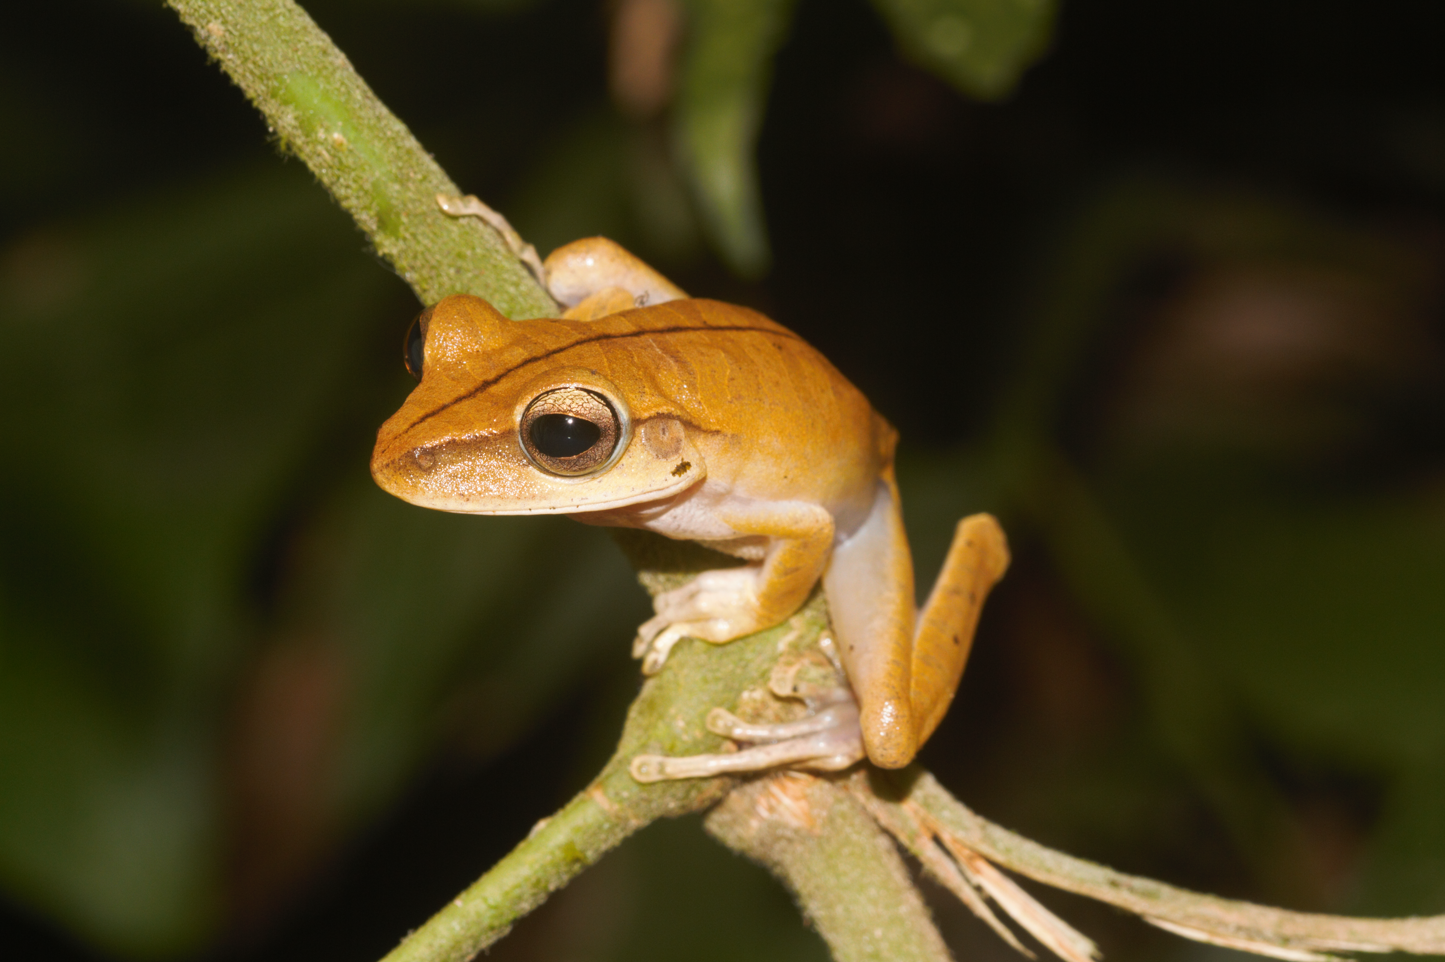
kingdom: Animalia
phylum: Chordata
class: Amphibia
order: Anura
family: Hylidae
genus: Boana
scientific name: Boana multifasciata
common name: Many-banded treefrog
